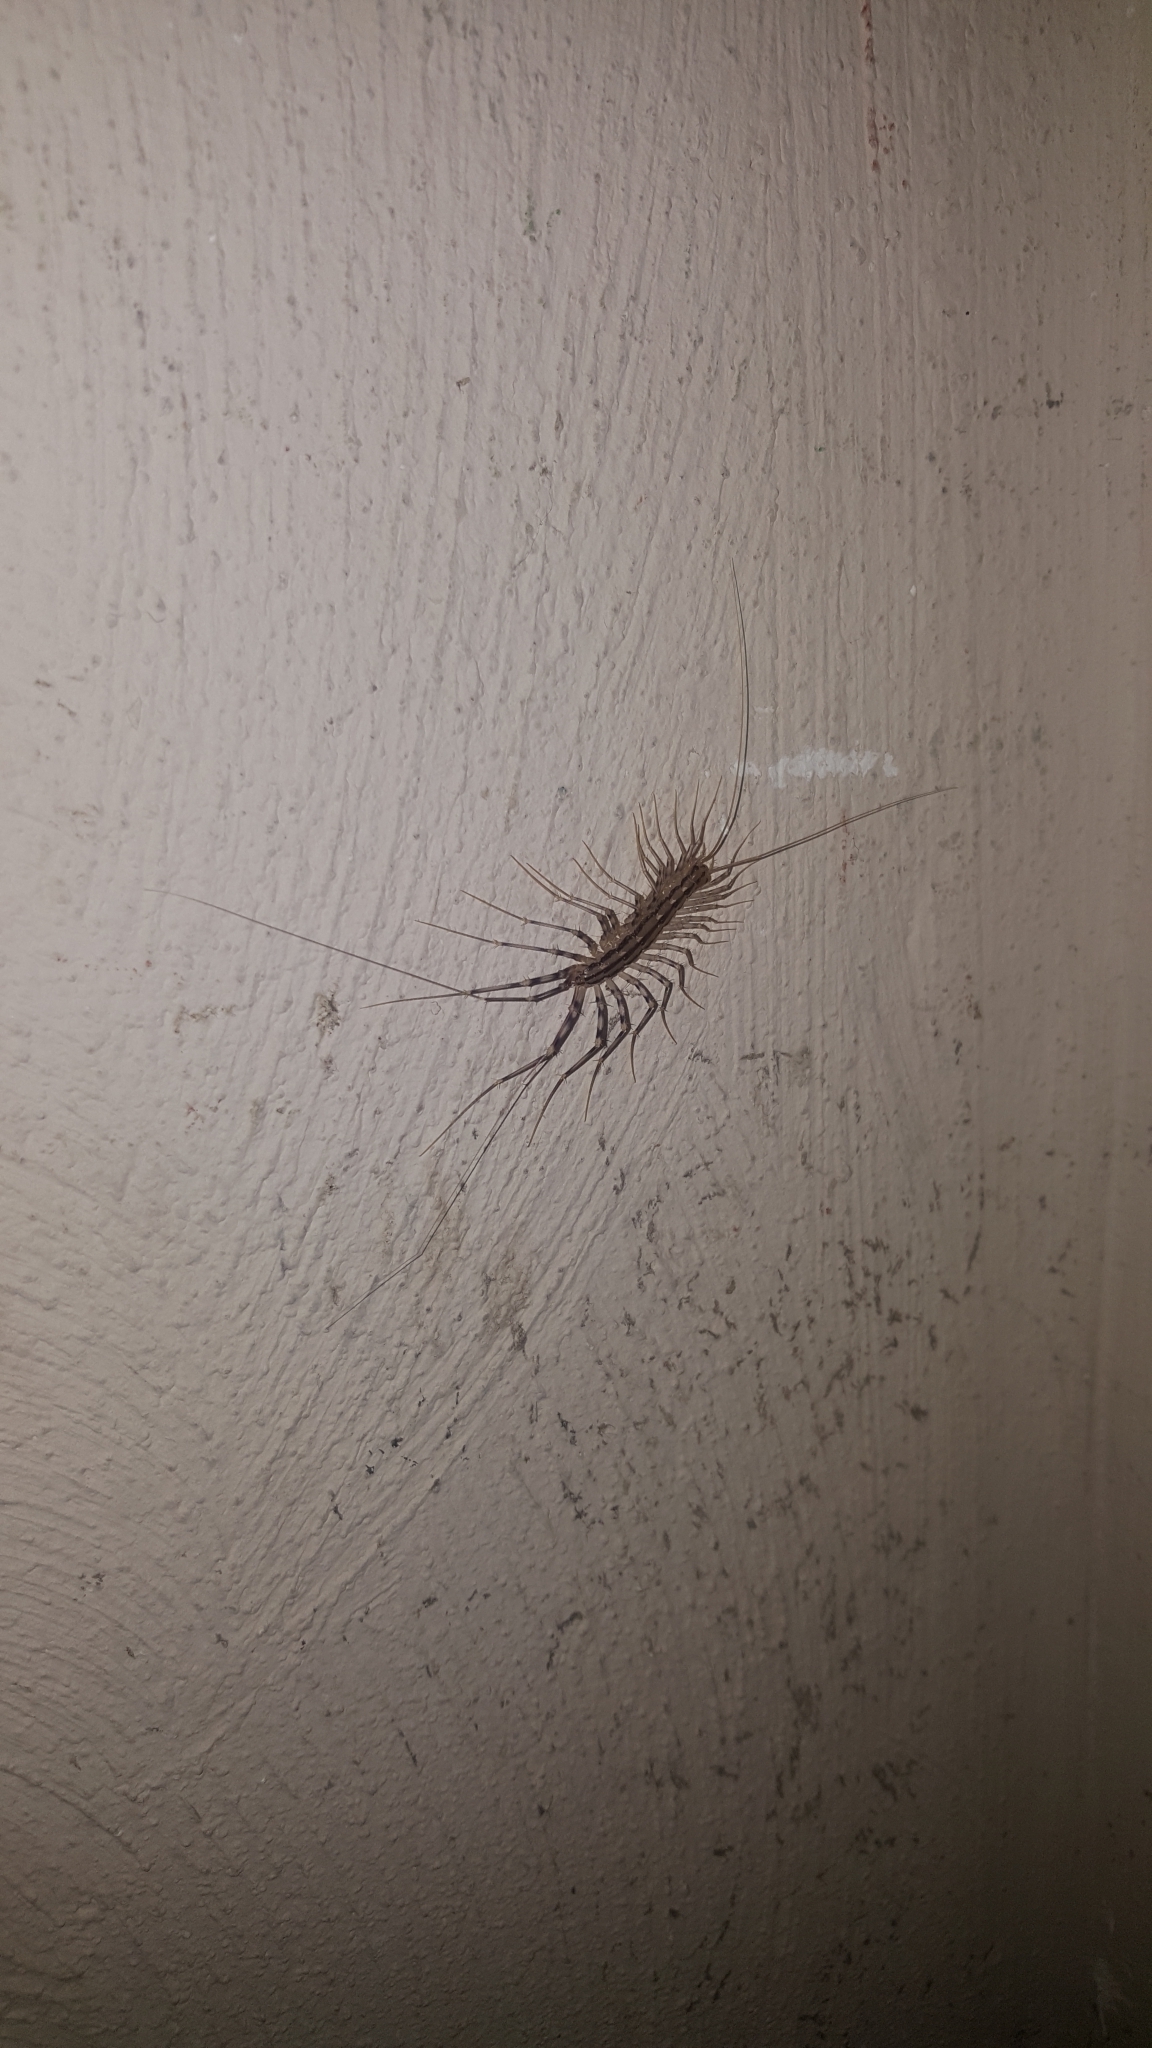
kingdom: Animalia
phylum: Arthropoda
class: Chilopoda
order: Scutigeromorpha
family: Scutigeridae
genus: Scutigera
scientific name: Scutigera coleoptrata
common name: House centipede
